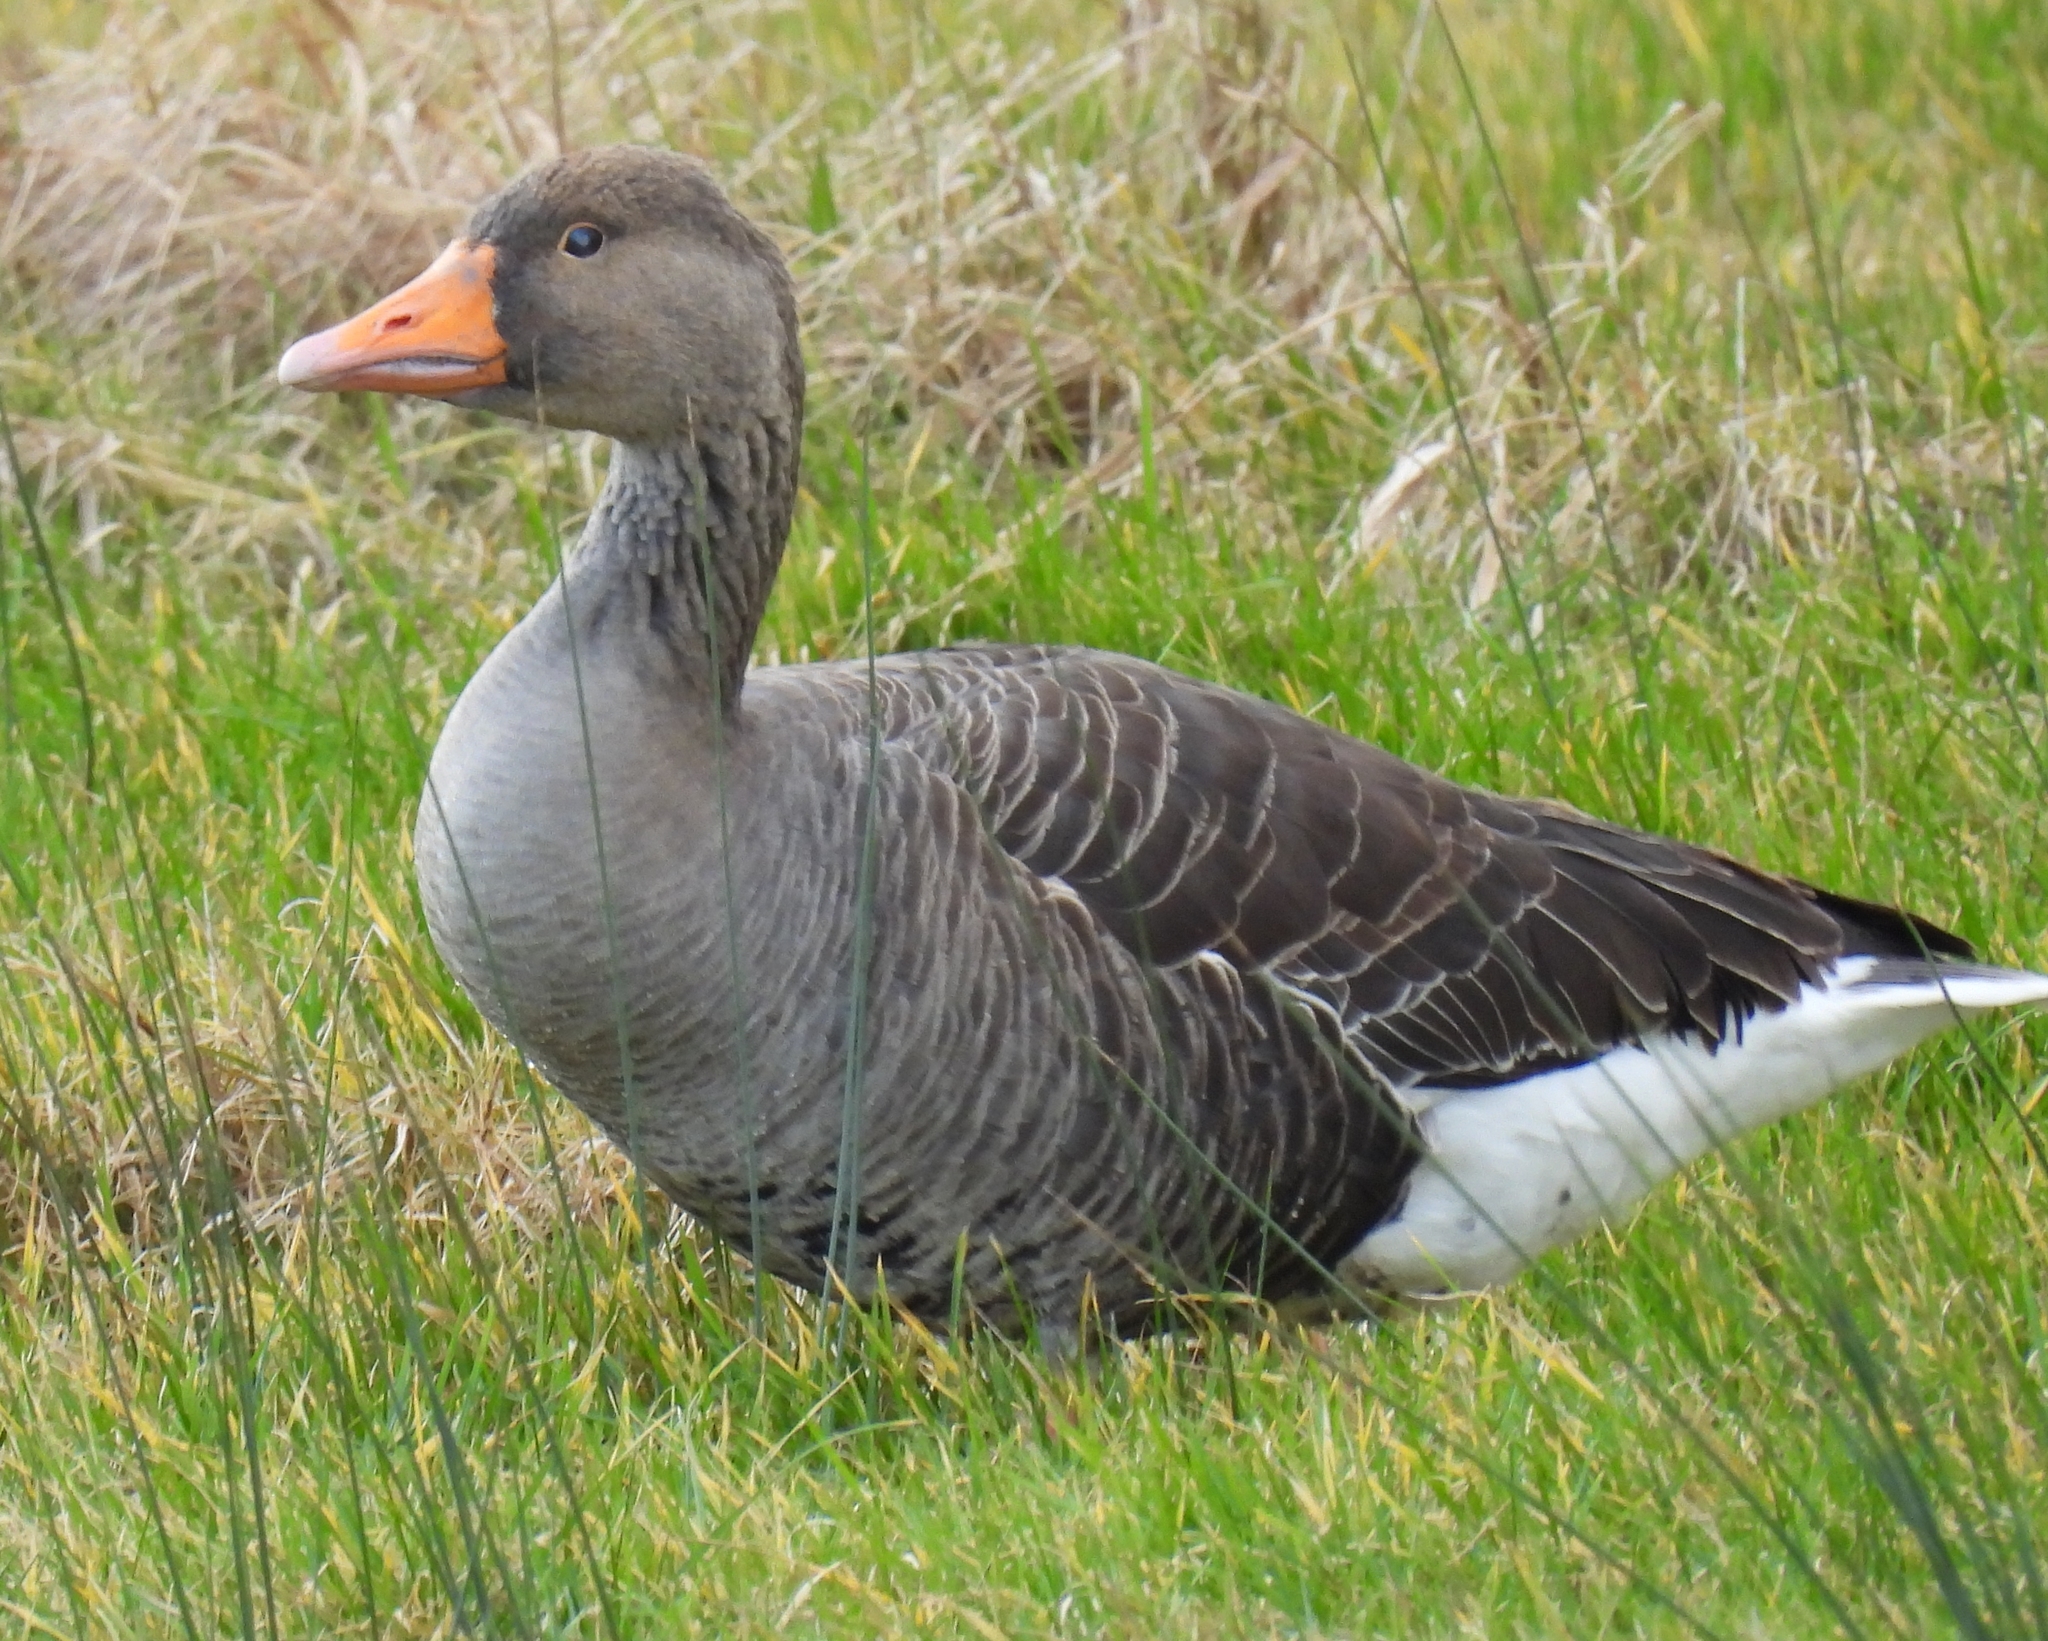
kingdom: Animalia
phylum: Chordata
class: Aves
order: Anseriformes
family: Anatidae
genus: Anser
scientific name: Anser anser
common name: Greylag goose
